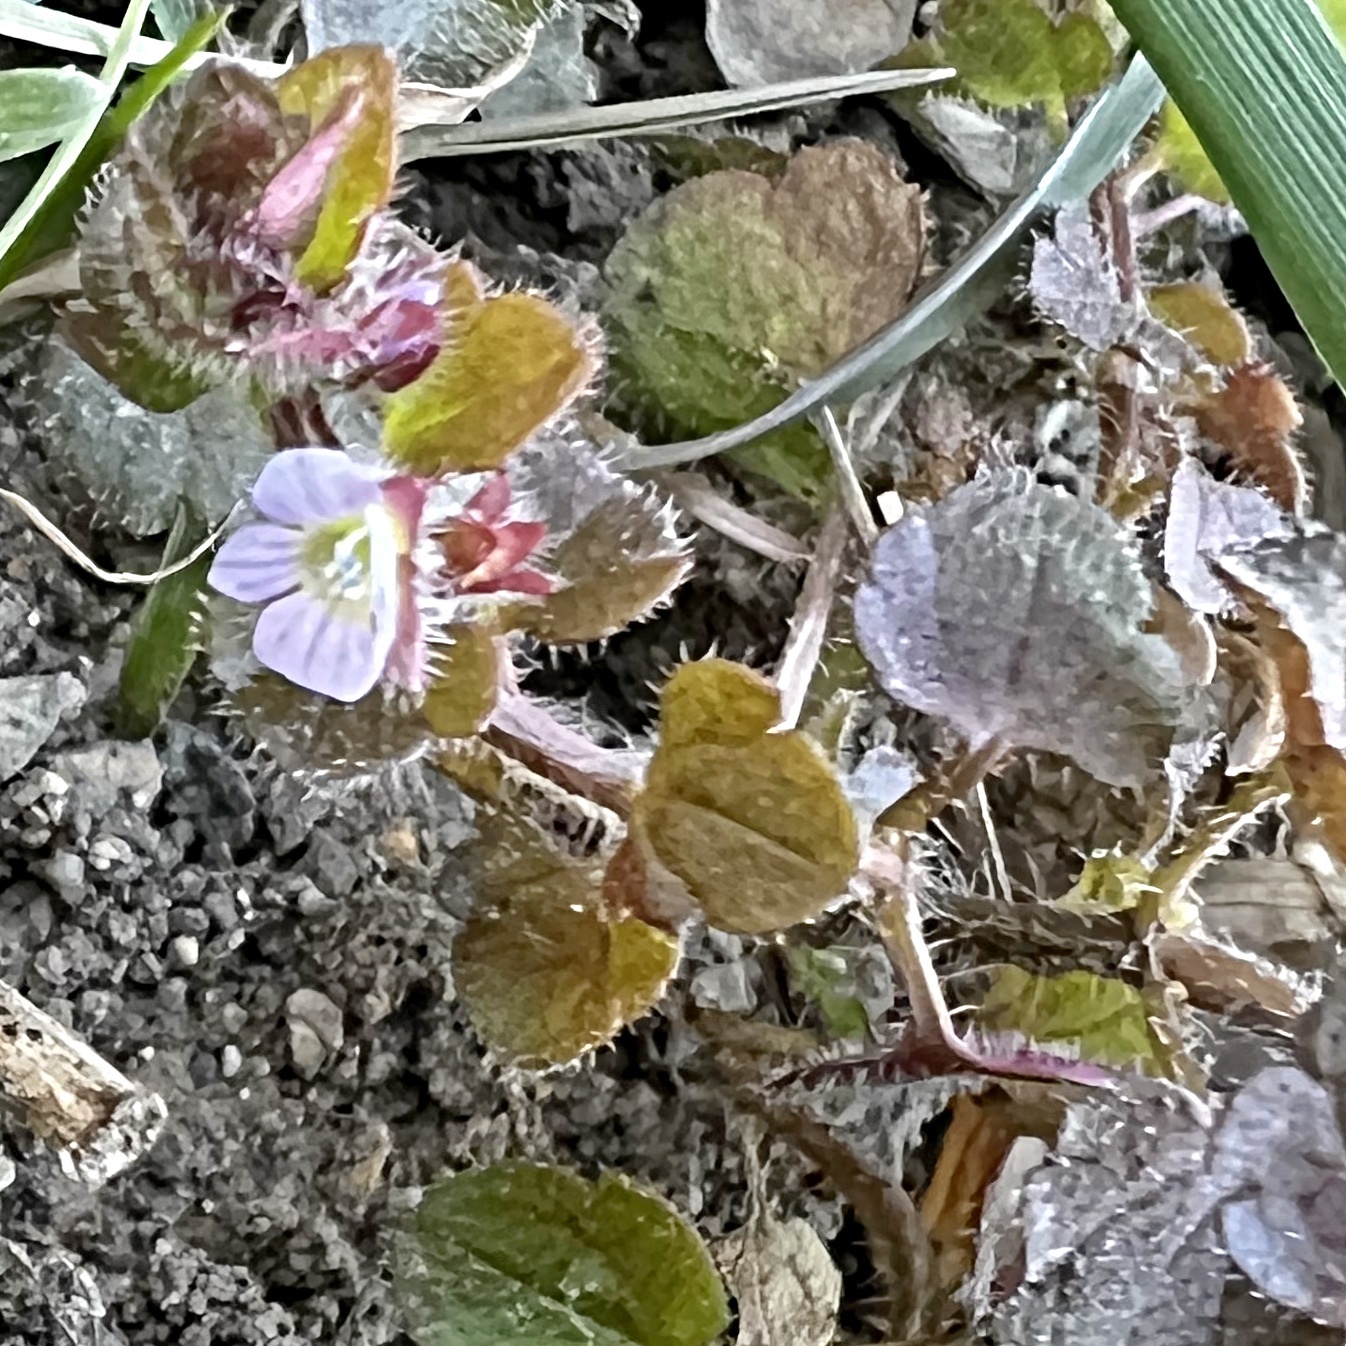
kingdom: Plantae
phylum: Tracheophyta
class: Magnoliopsida
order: Lamiales
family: Plantaginaceae
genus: Veronica
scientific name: Veronica sublobata
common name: False ivy-leaved speedwell
